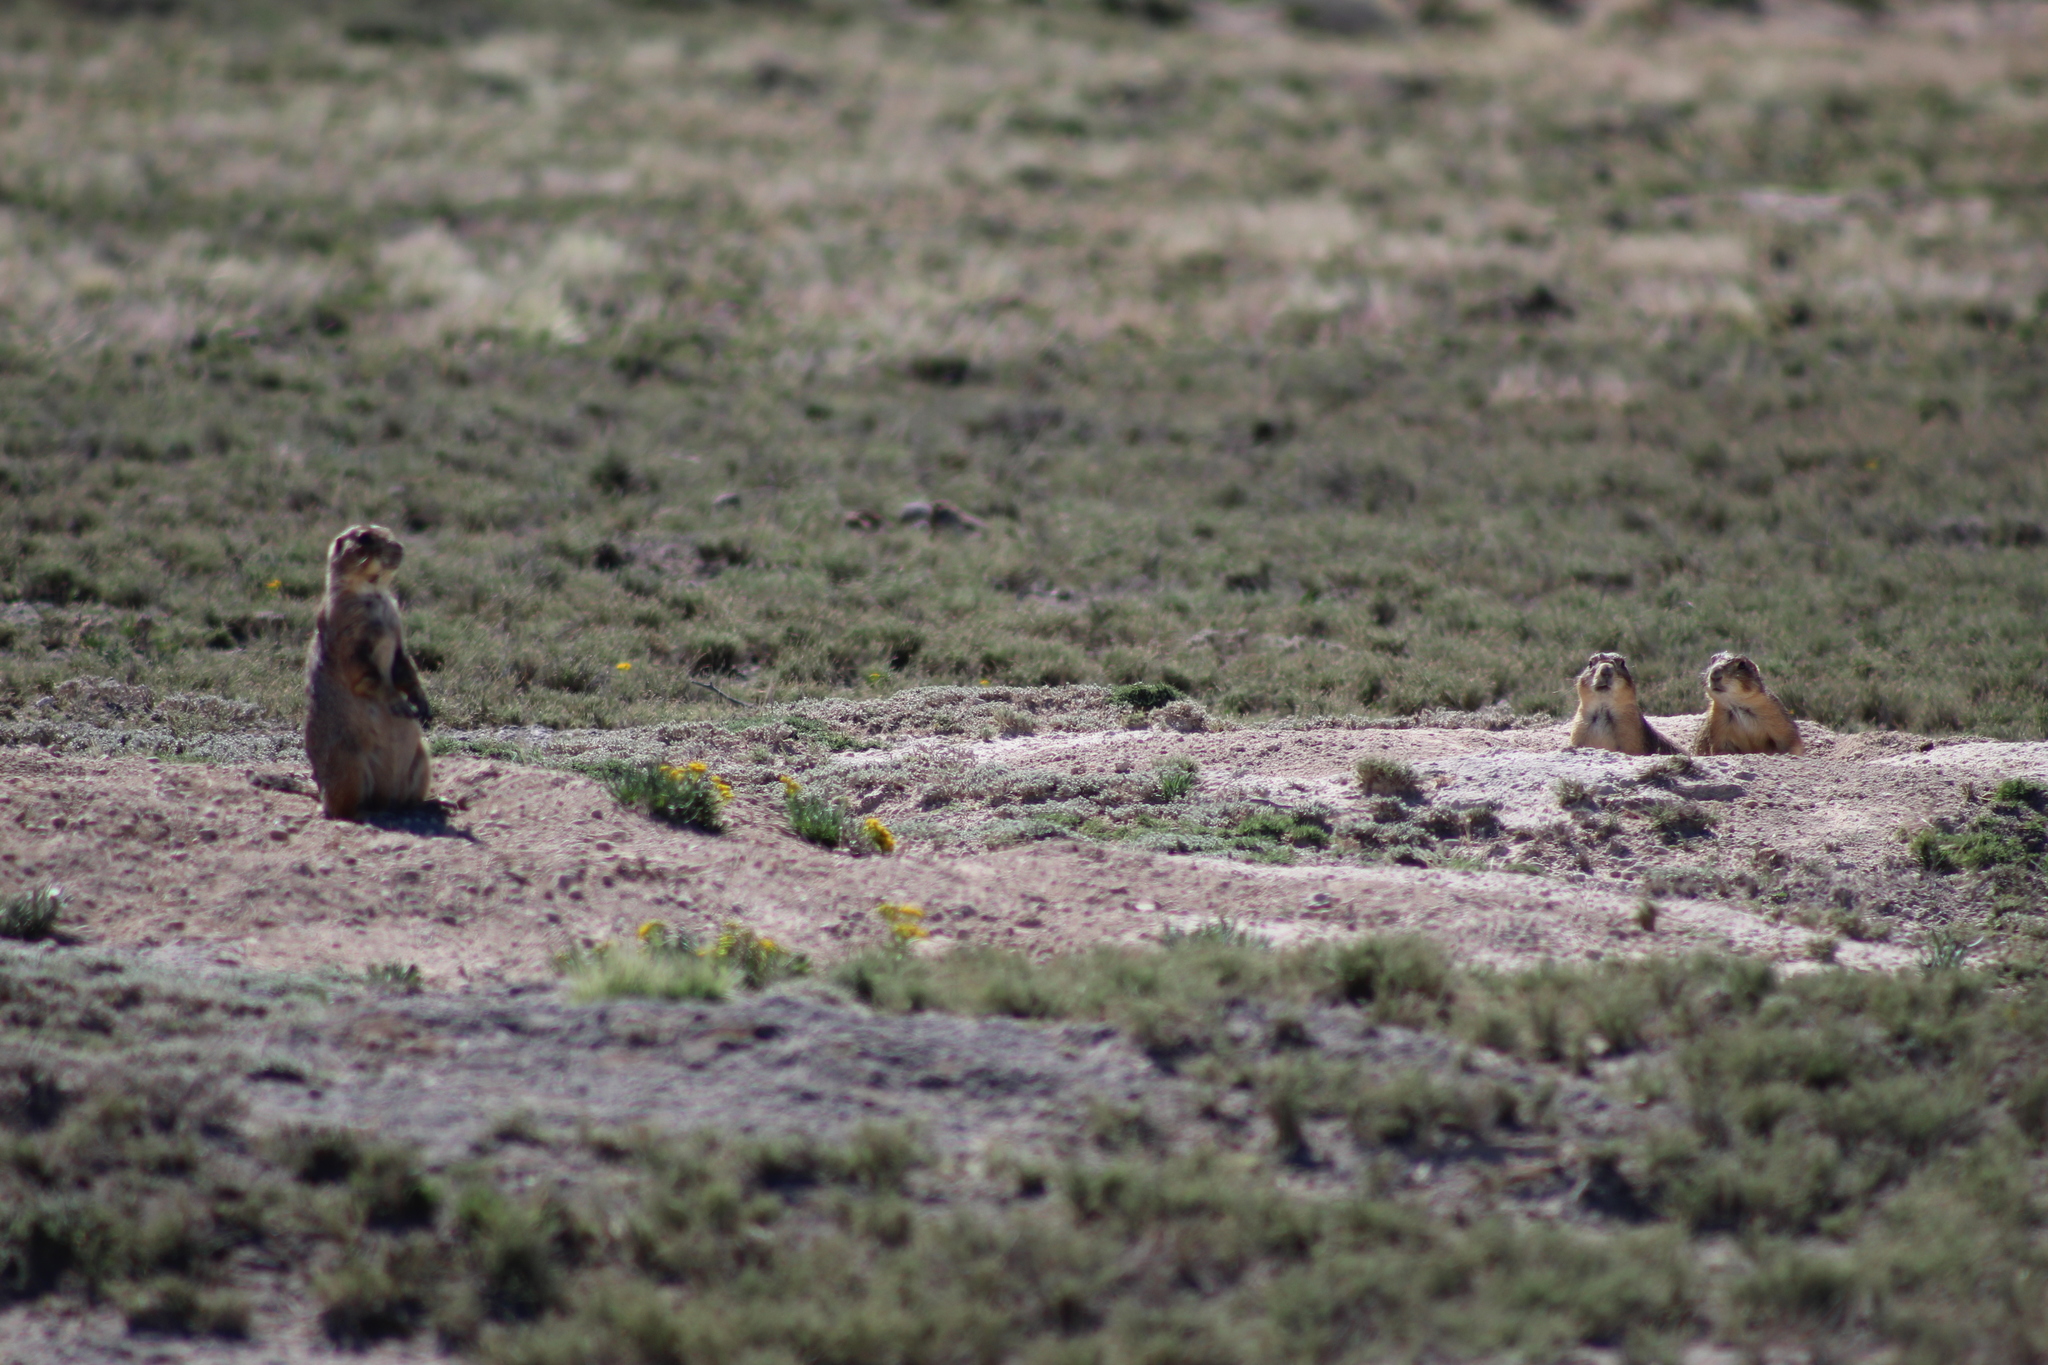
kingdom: Animalia
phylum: Chordata
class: Mammalia
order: Rodentia
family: Sciuridae
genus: Cynomys
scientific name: Cynomys mexicanus
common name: Mexican prairie dog
